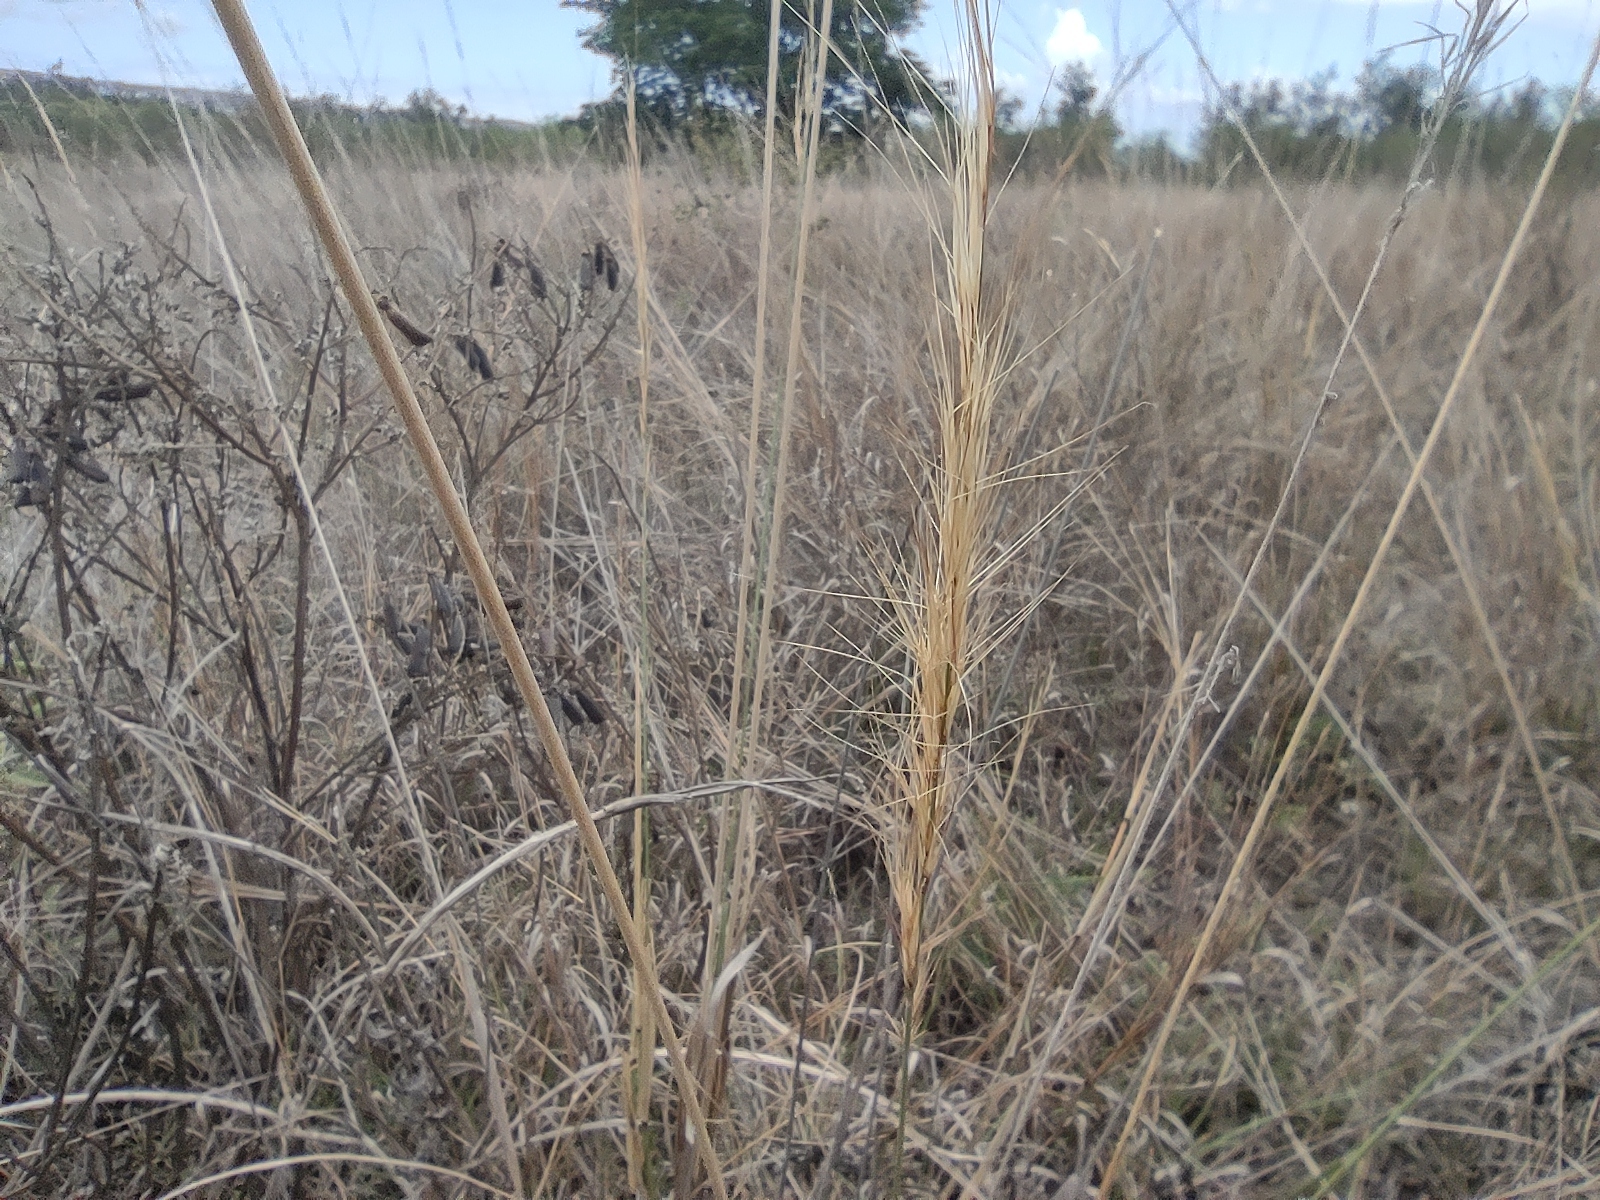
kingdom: Plantae
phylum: Tracheophyta
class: Liliopsida
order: Poales
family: Poaceae
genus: Aristida
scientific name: Aristida setacea
